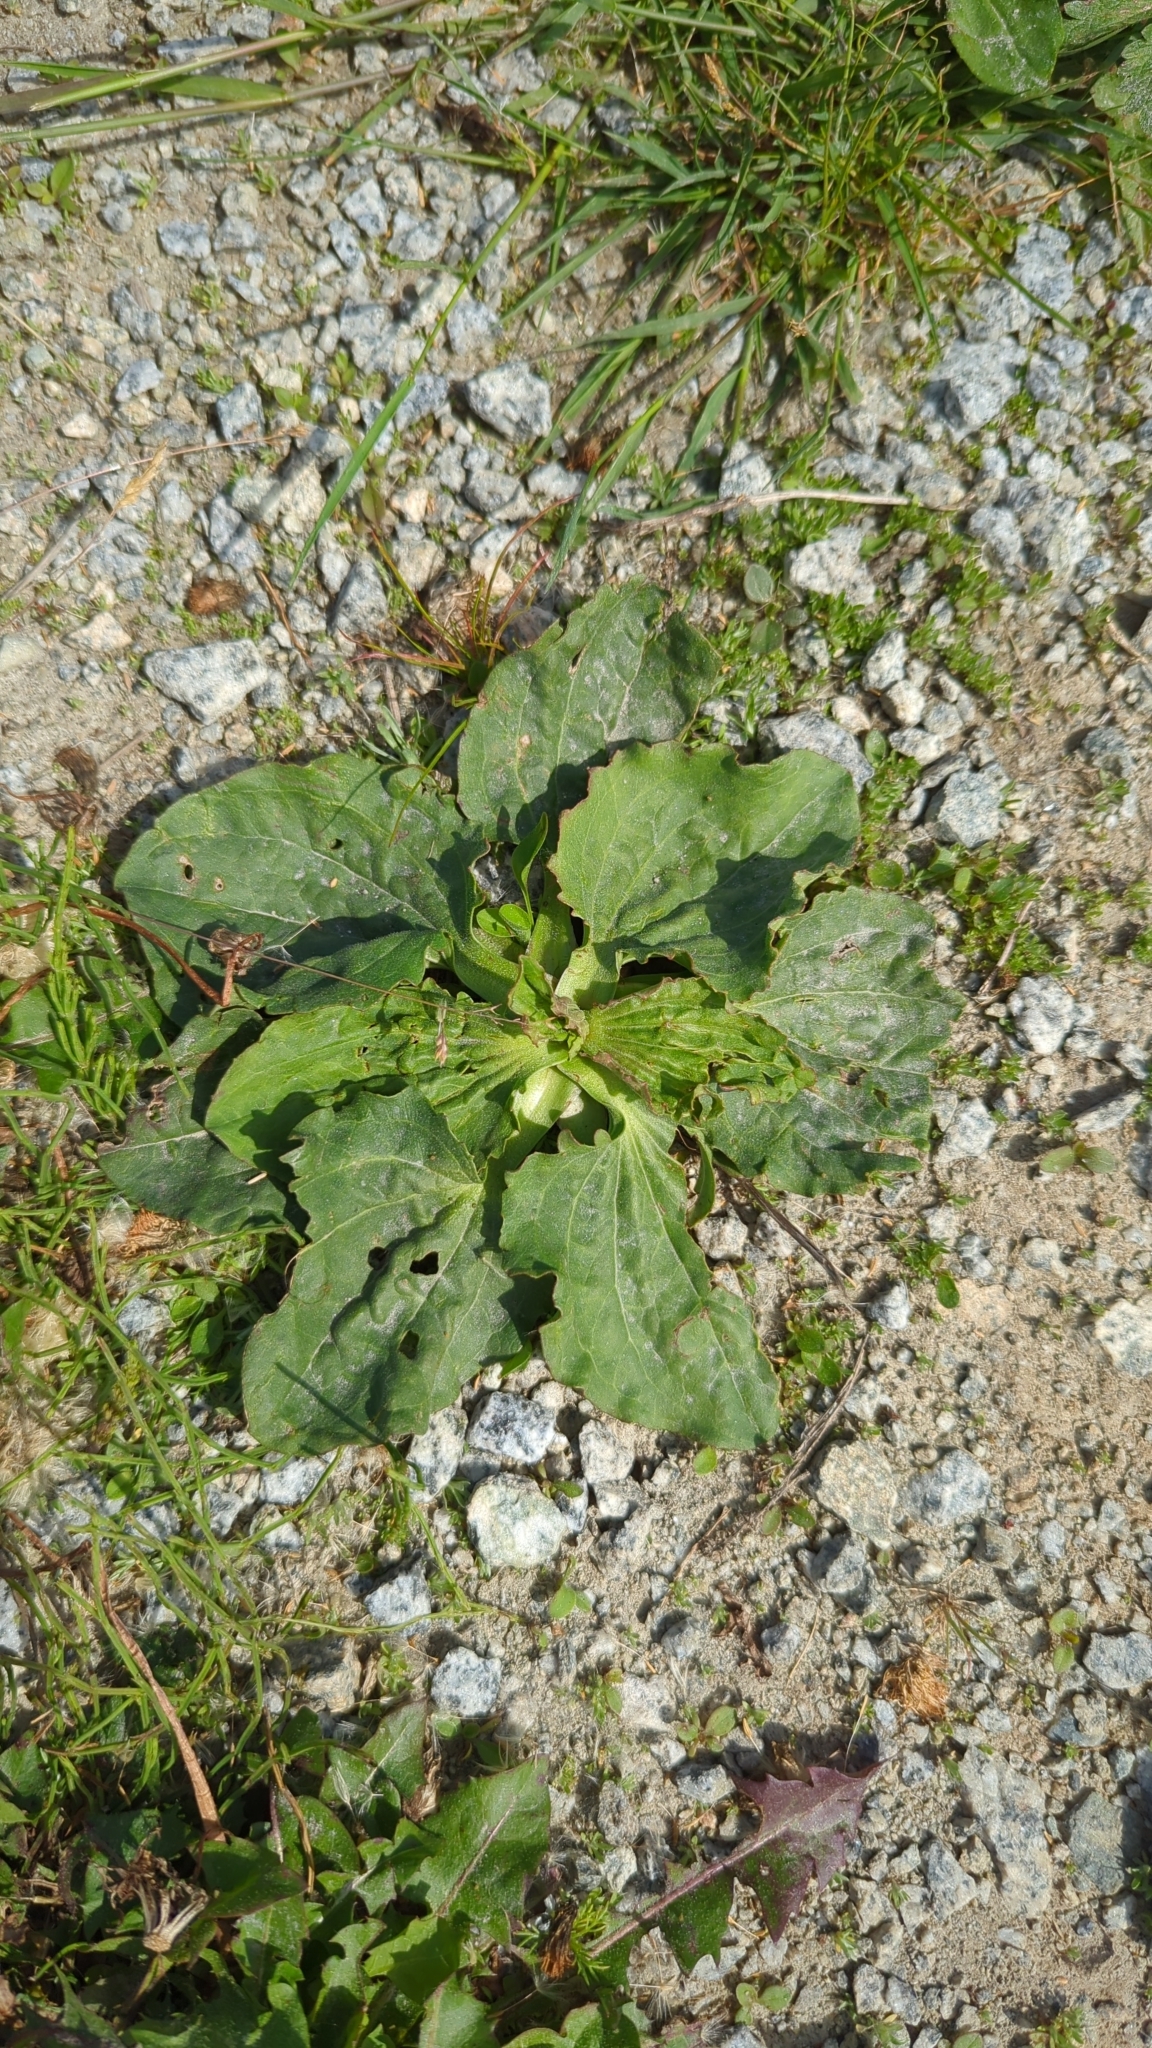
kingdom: Plantae
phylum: Tracheophyta
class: Magnoliopsida
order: Lamiales
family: Plantaginaceae
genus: Plantago
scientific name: Plantago major
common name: Common plantain
